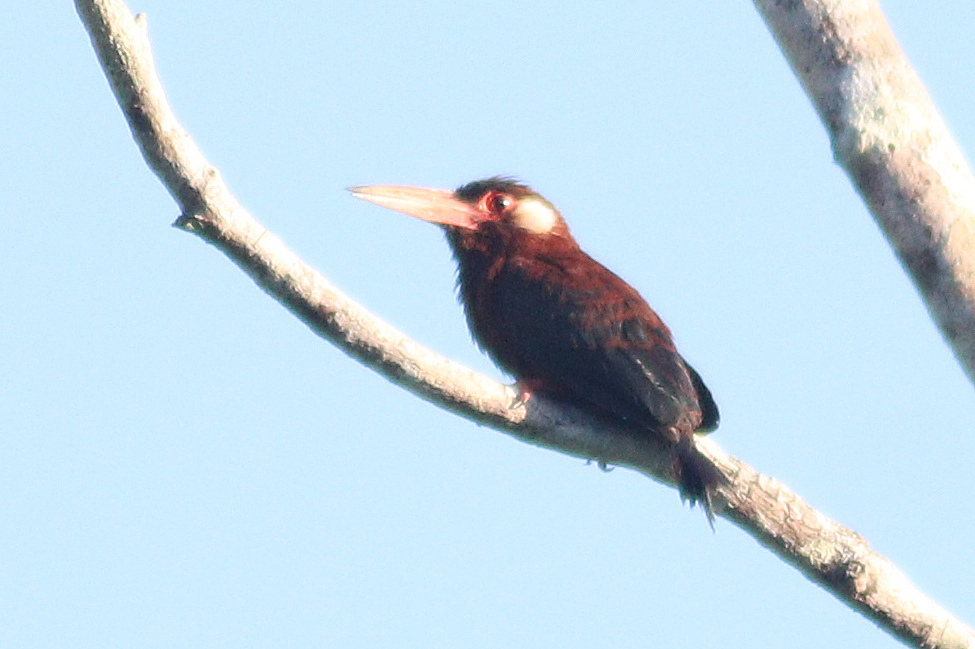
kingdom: Animalia
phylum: Chordata
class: Aves
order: Piciformes
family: Galbulidae
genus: Galbalcyrhynchus
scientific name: Galbalcyrhynchus leucotis
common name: White-eared jacamar
